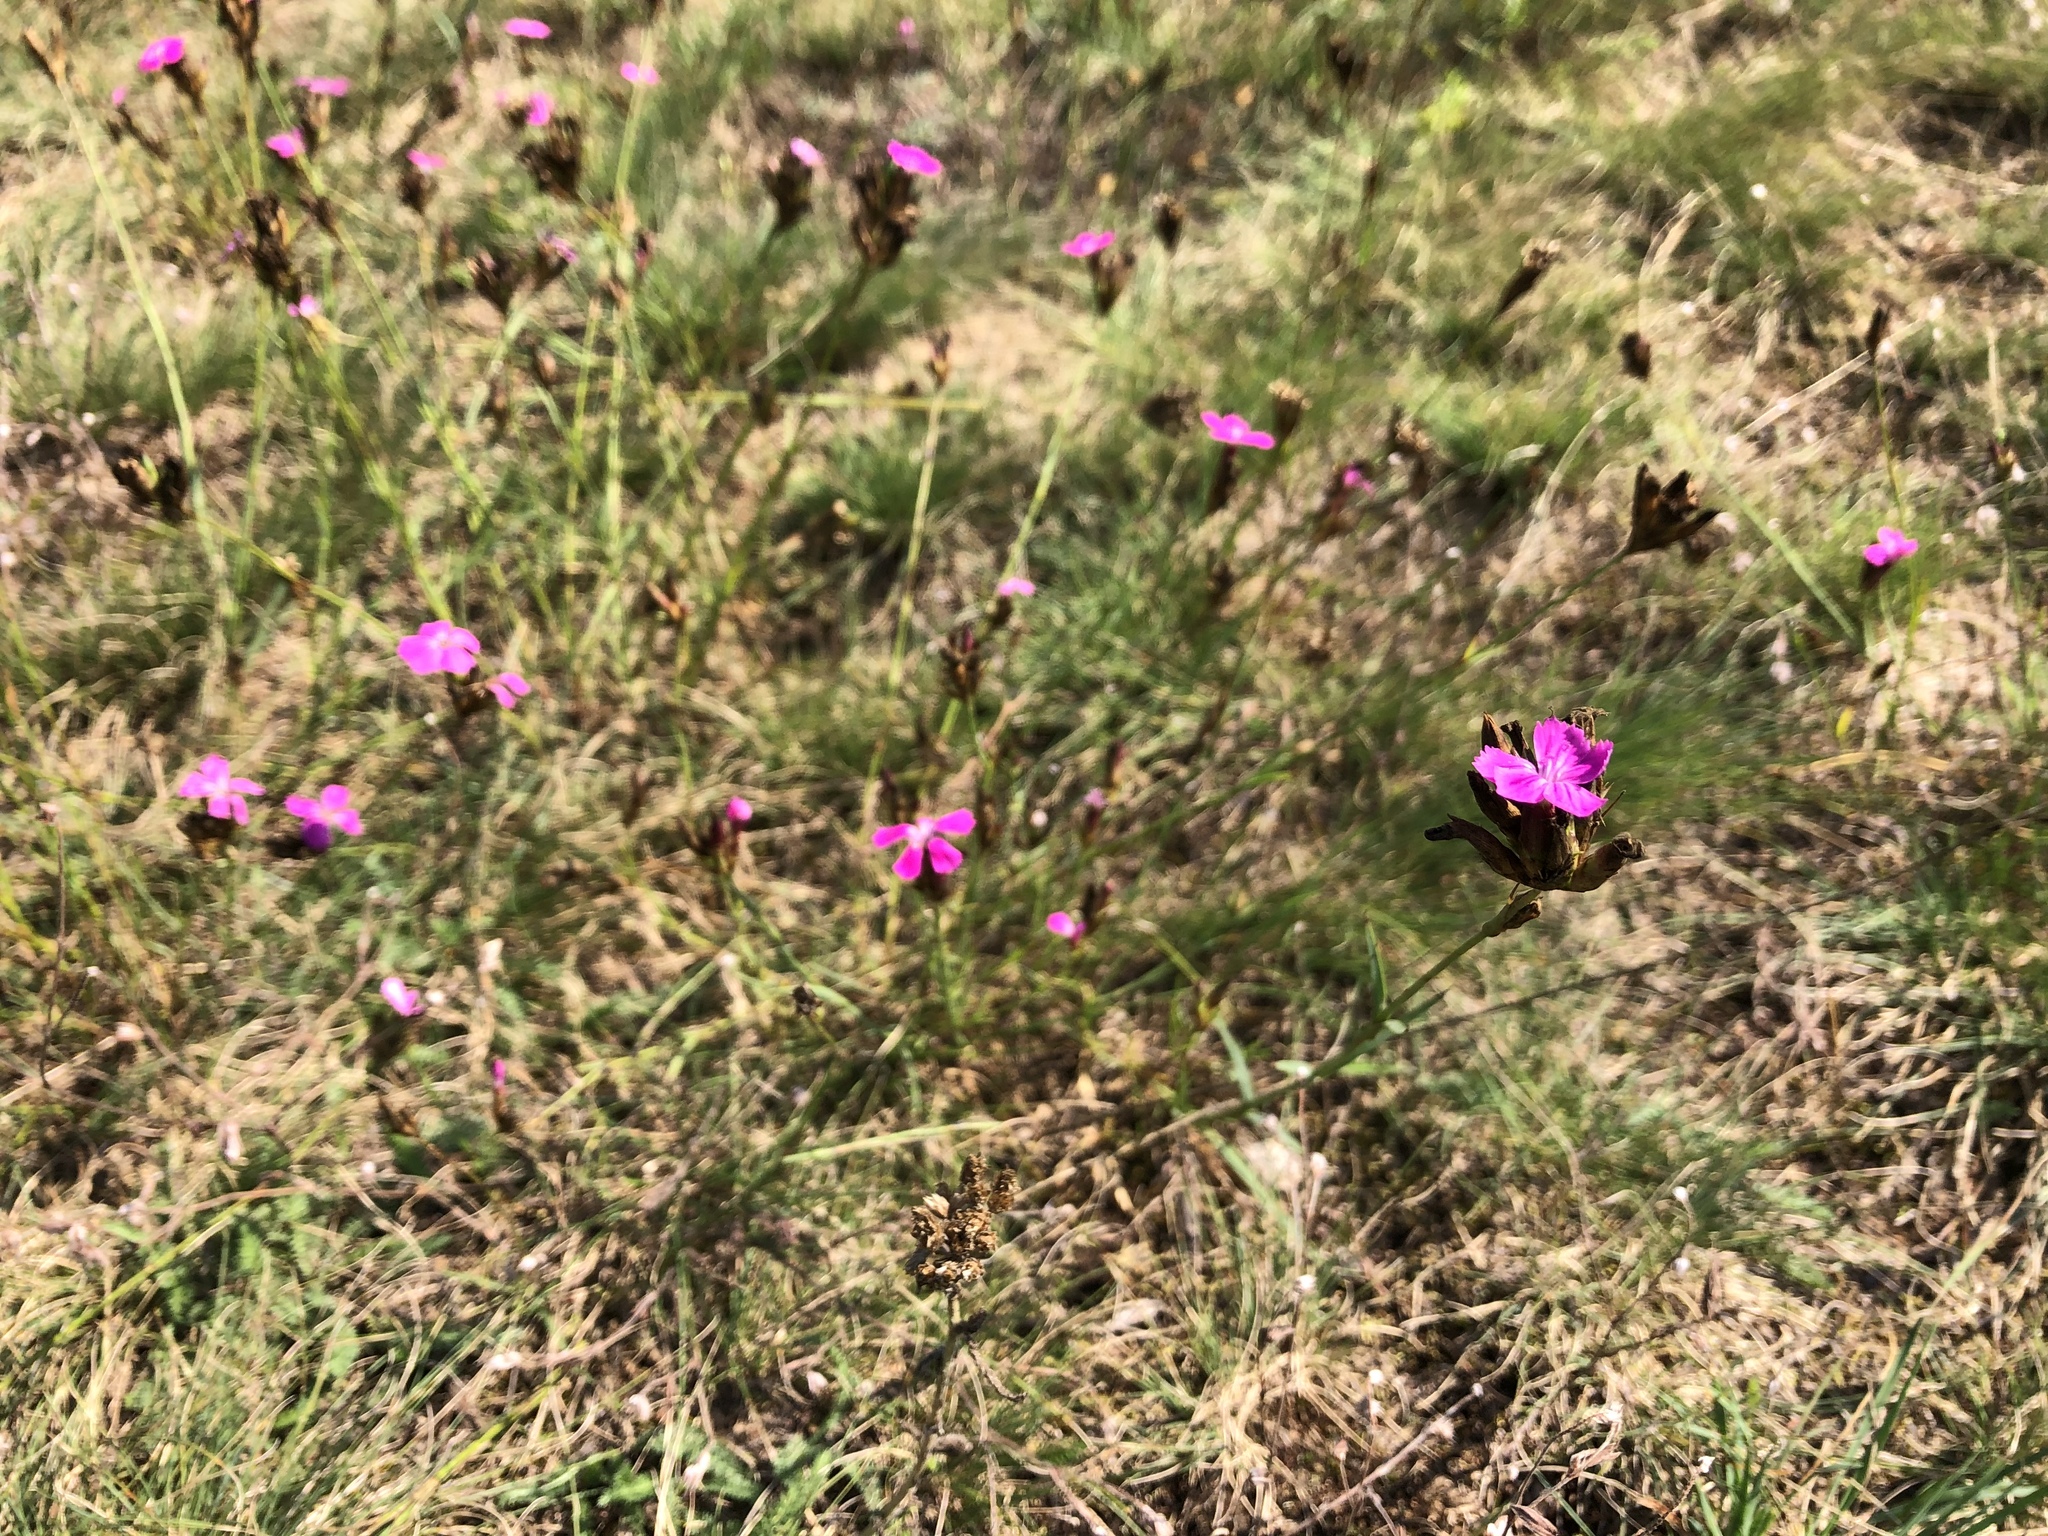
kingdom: Plantae
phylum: Tracheophyta
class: Magnoliopsida
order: Caryophyllales
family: Caryophyllaceae
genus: Dianthus
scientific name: Dianthus carthusianorum
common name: Carthusian pink
